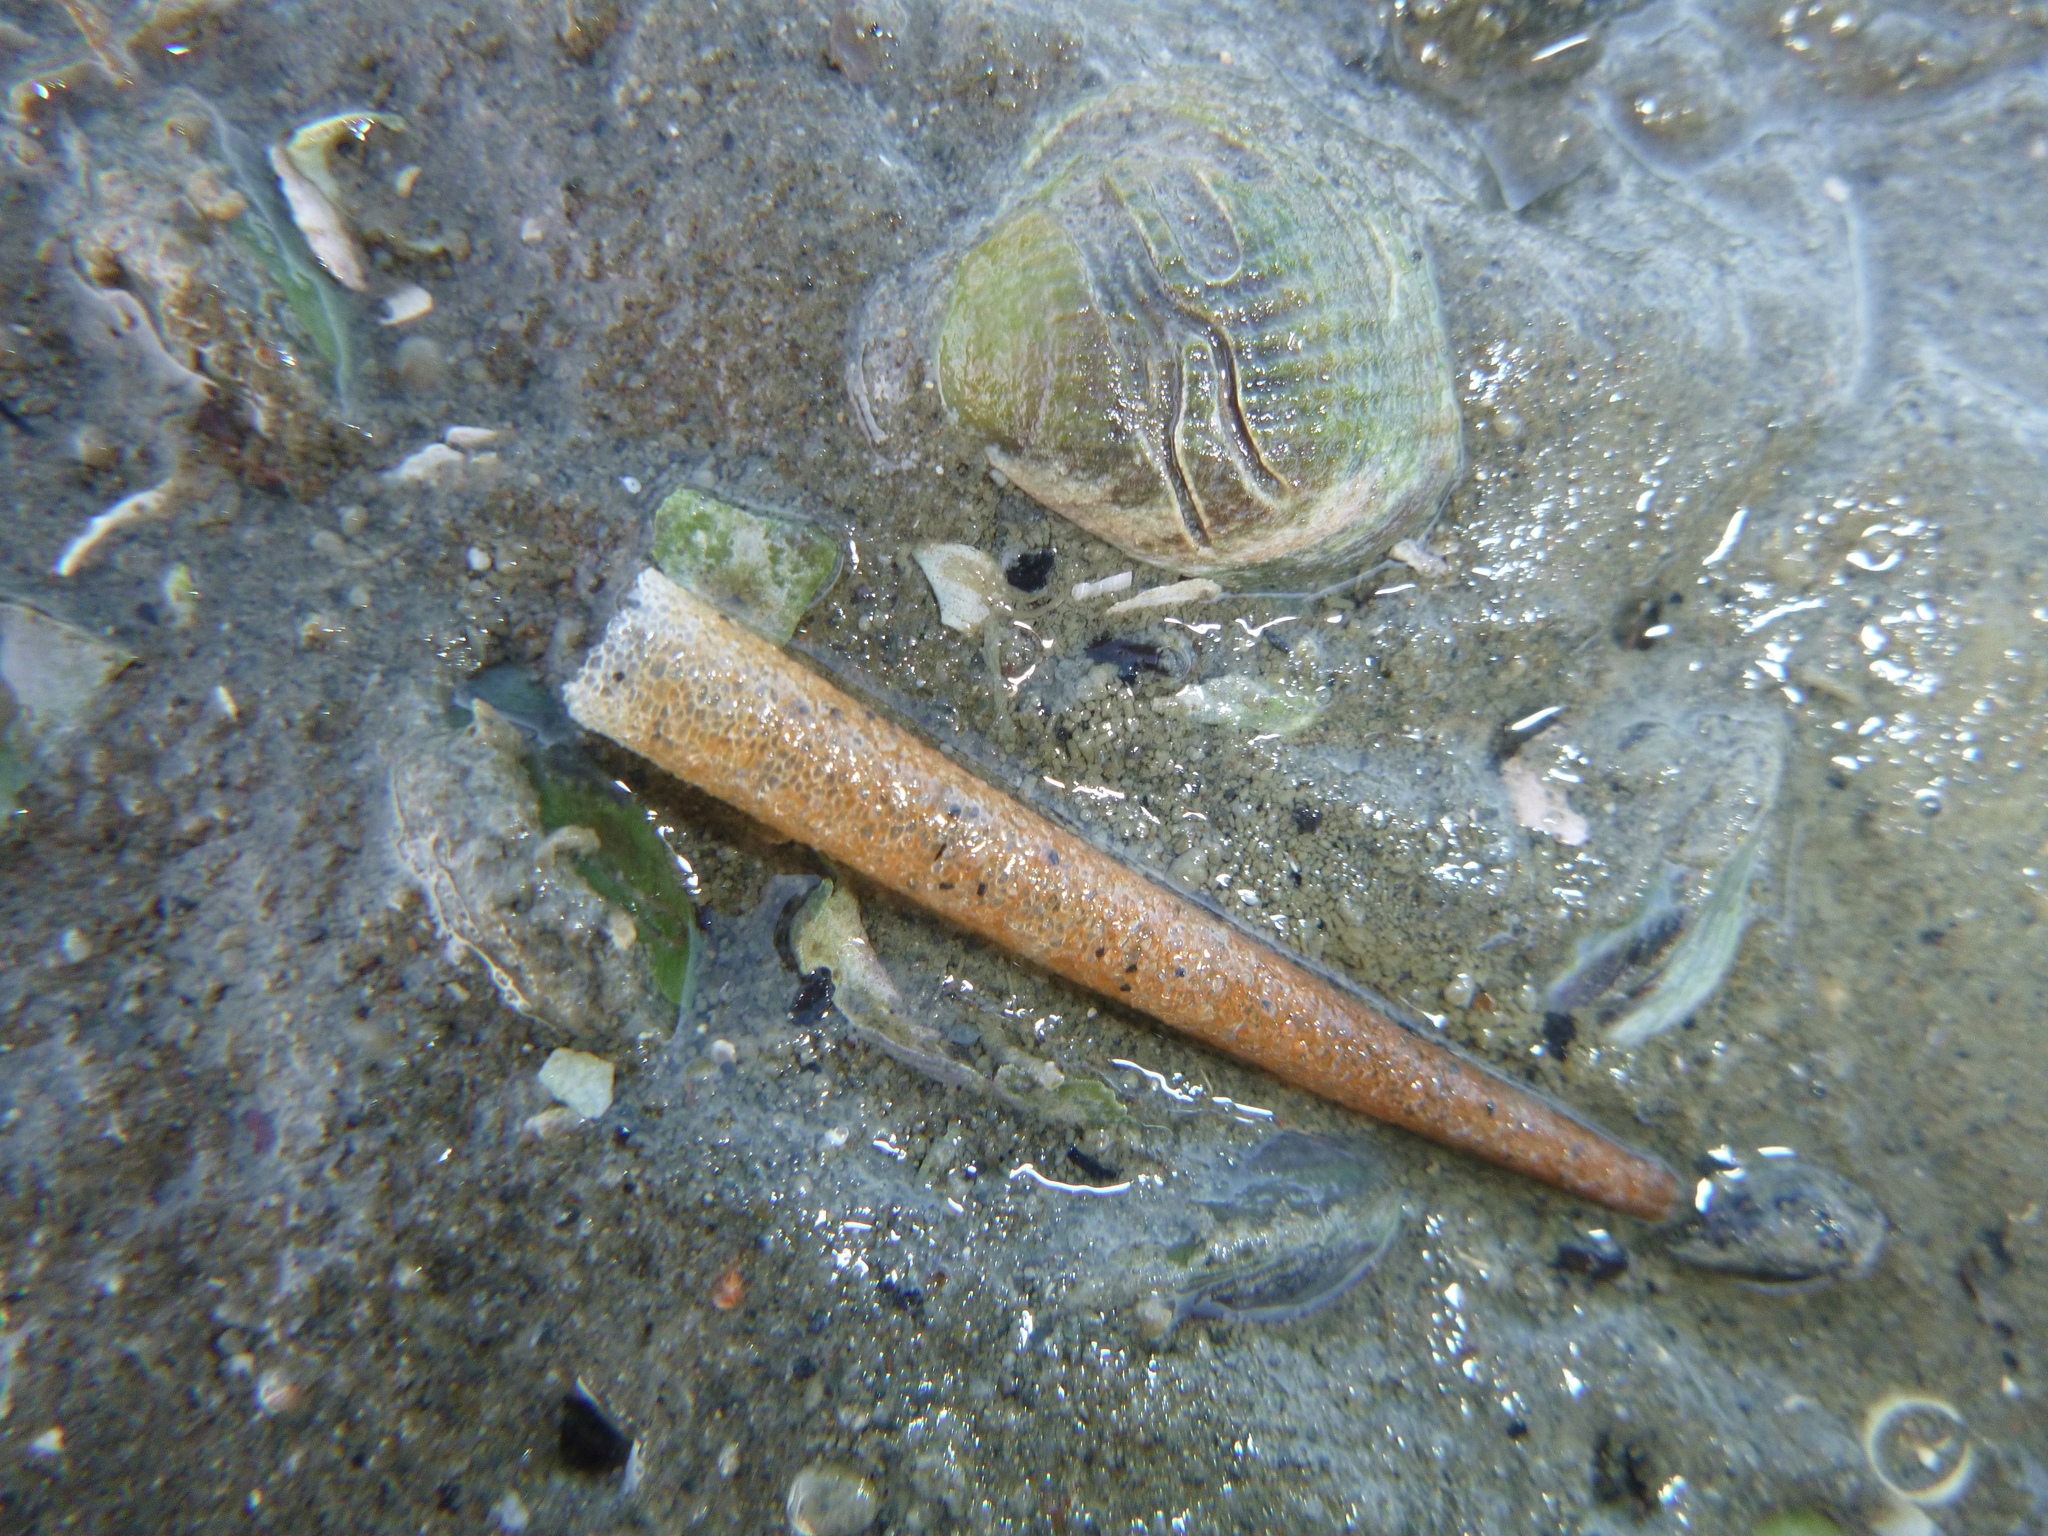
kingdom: Animalia
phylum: Annelida
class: Polychaeta
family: Pectinariidae
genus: Lagis
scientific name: Lagis australis
